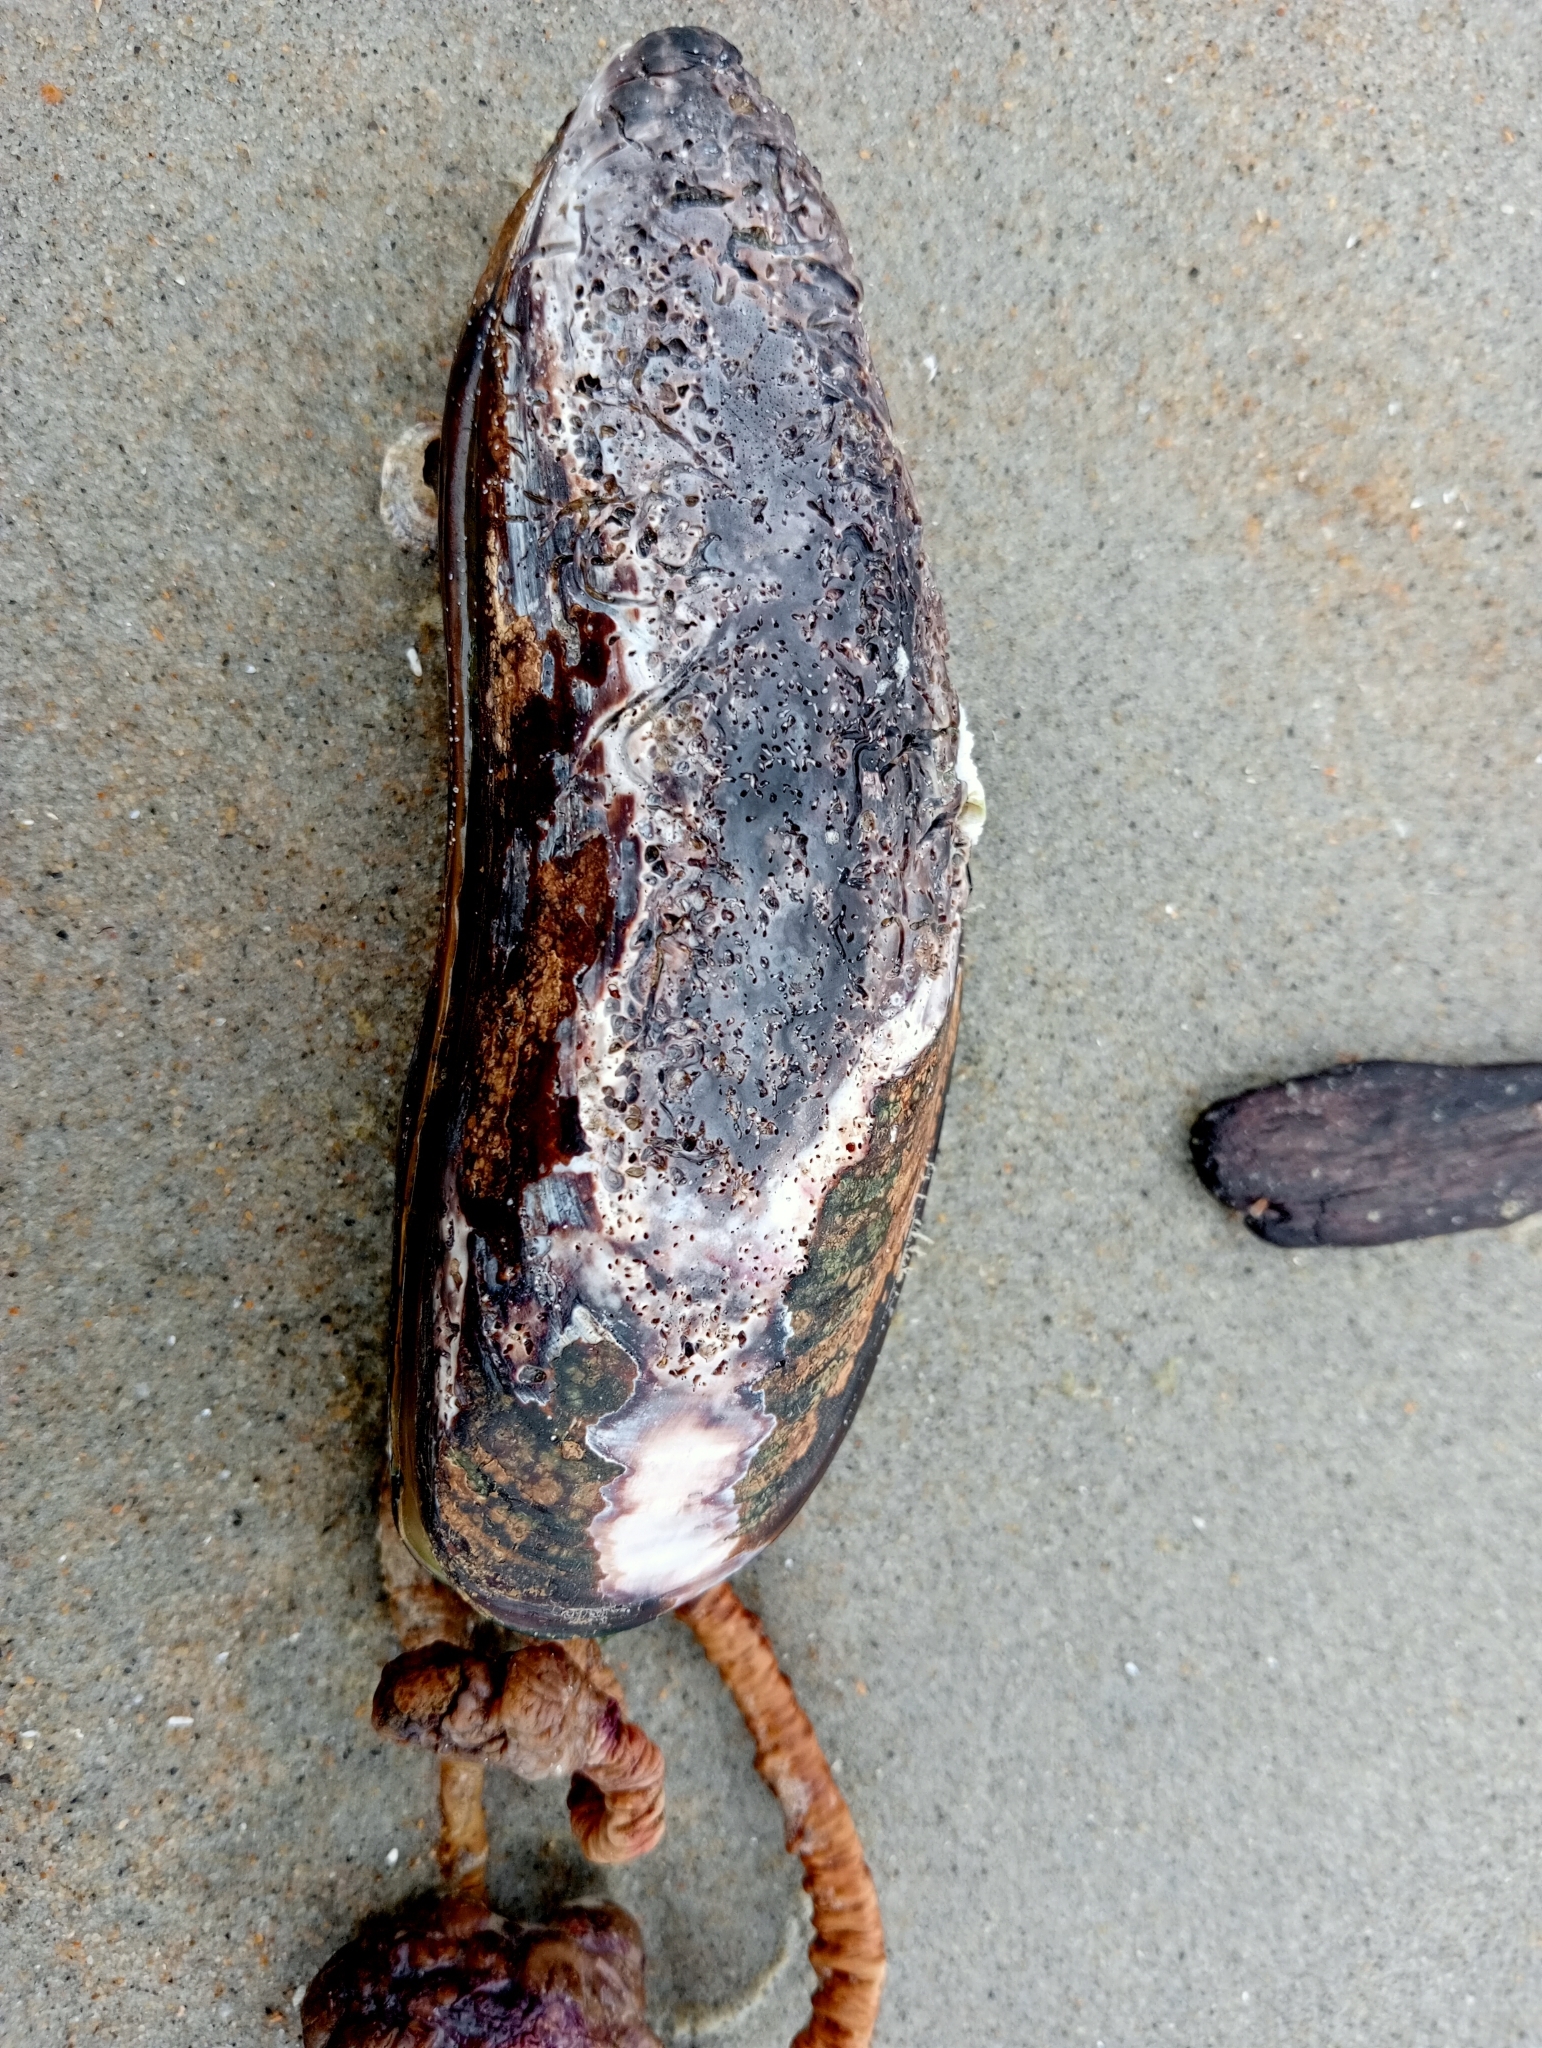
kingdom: Animalia
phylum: Mollusca
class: Bivalvia
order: Mytilida
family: Mytilidae
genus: Perna
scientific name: Perna canaliculus
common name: New zealand greenshelltm
